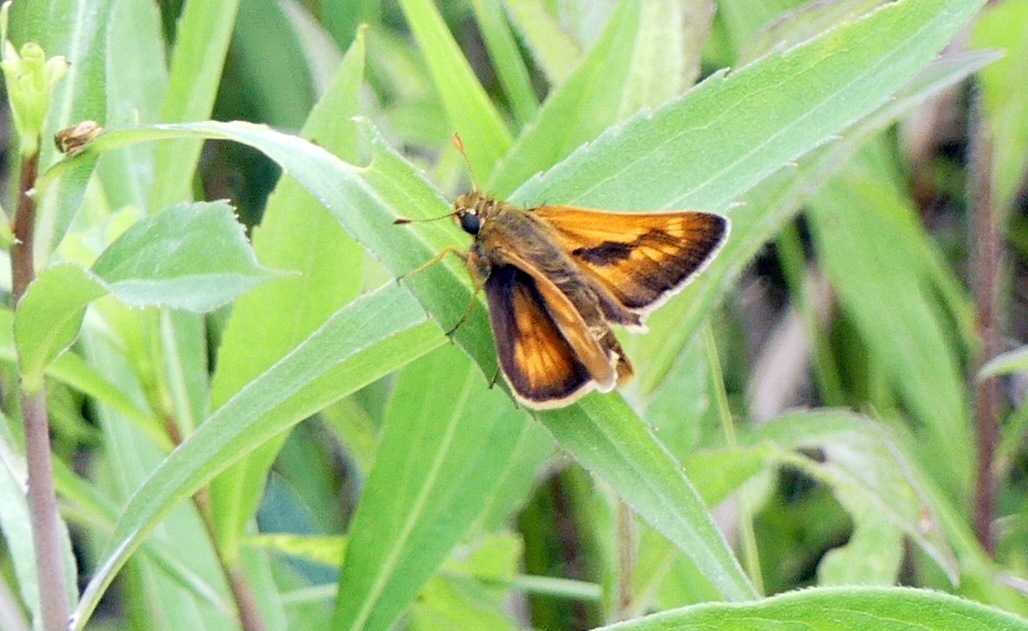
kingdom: Animalia
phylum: Arthropoda
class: Insecta
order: Lepidoptera
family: Hesperiidae
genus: Polites
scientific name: Polites mystic
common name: Long dash
